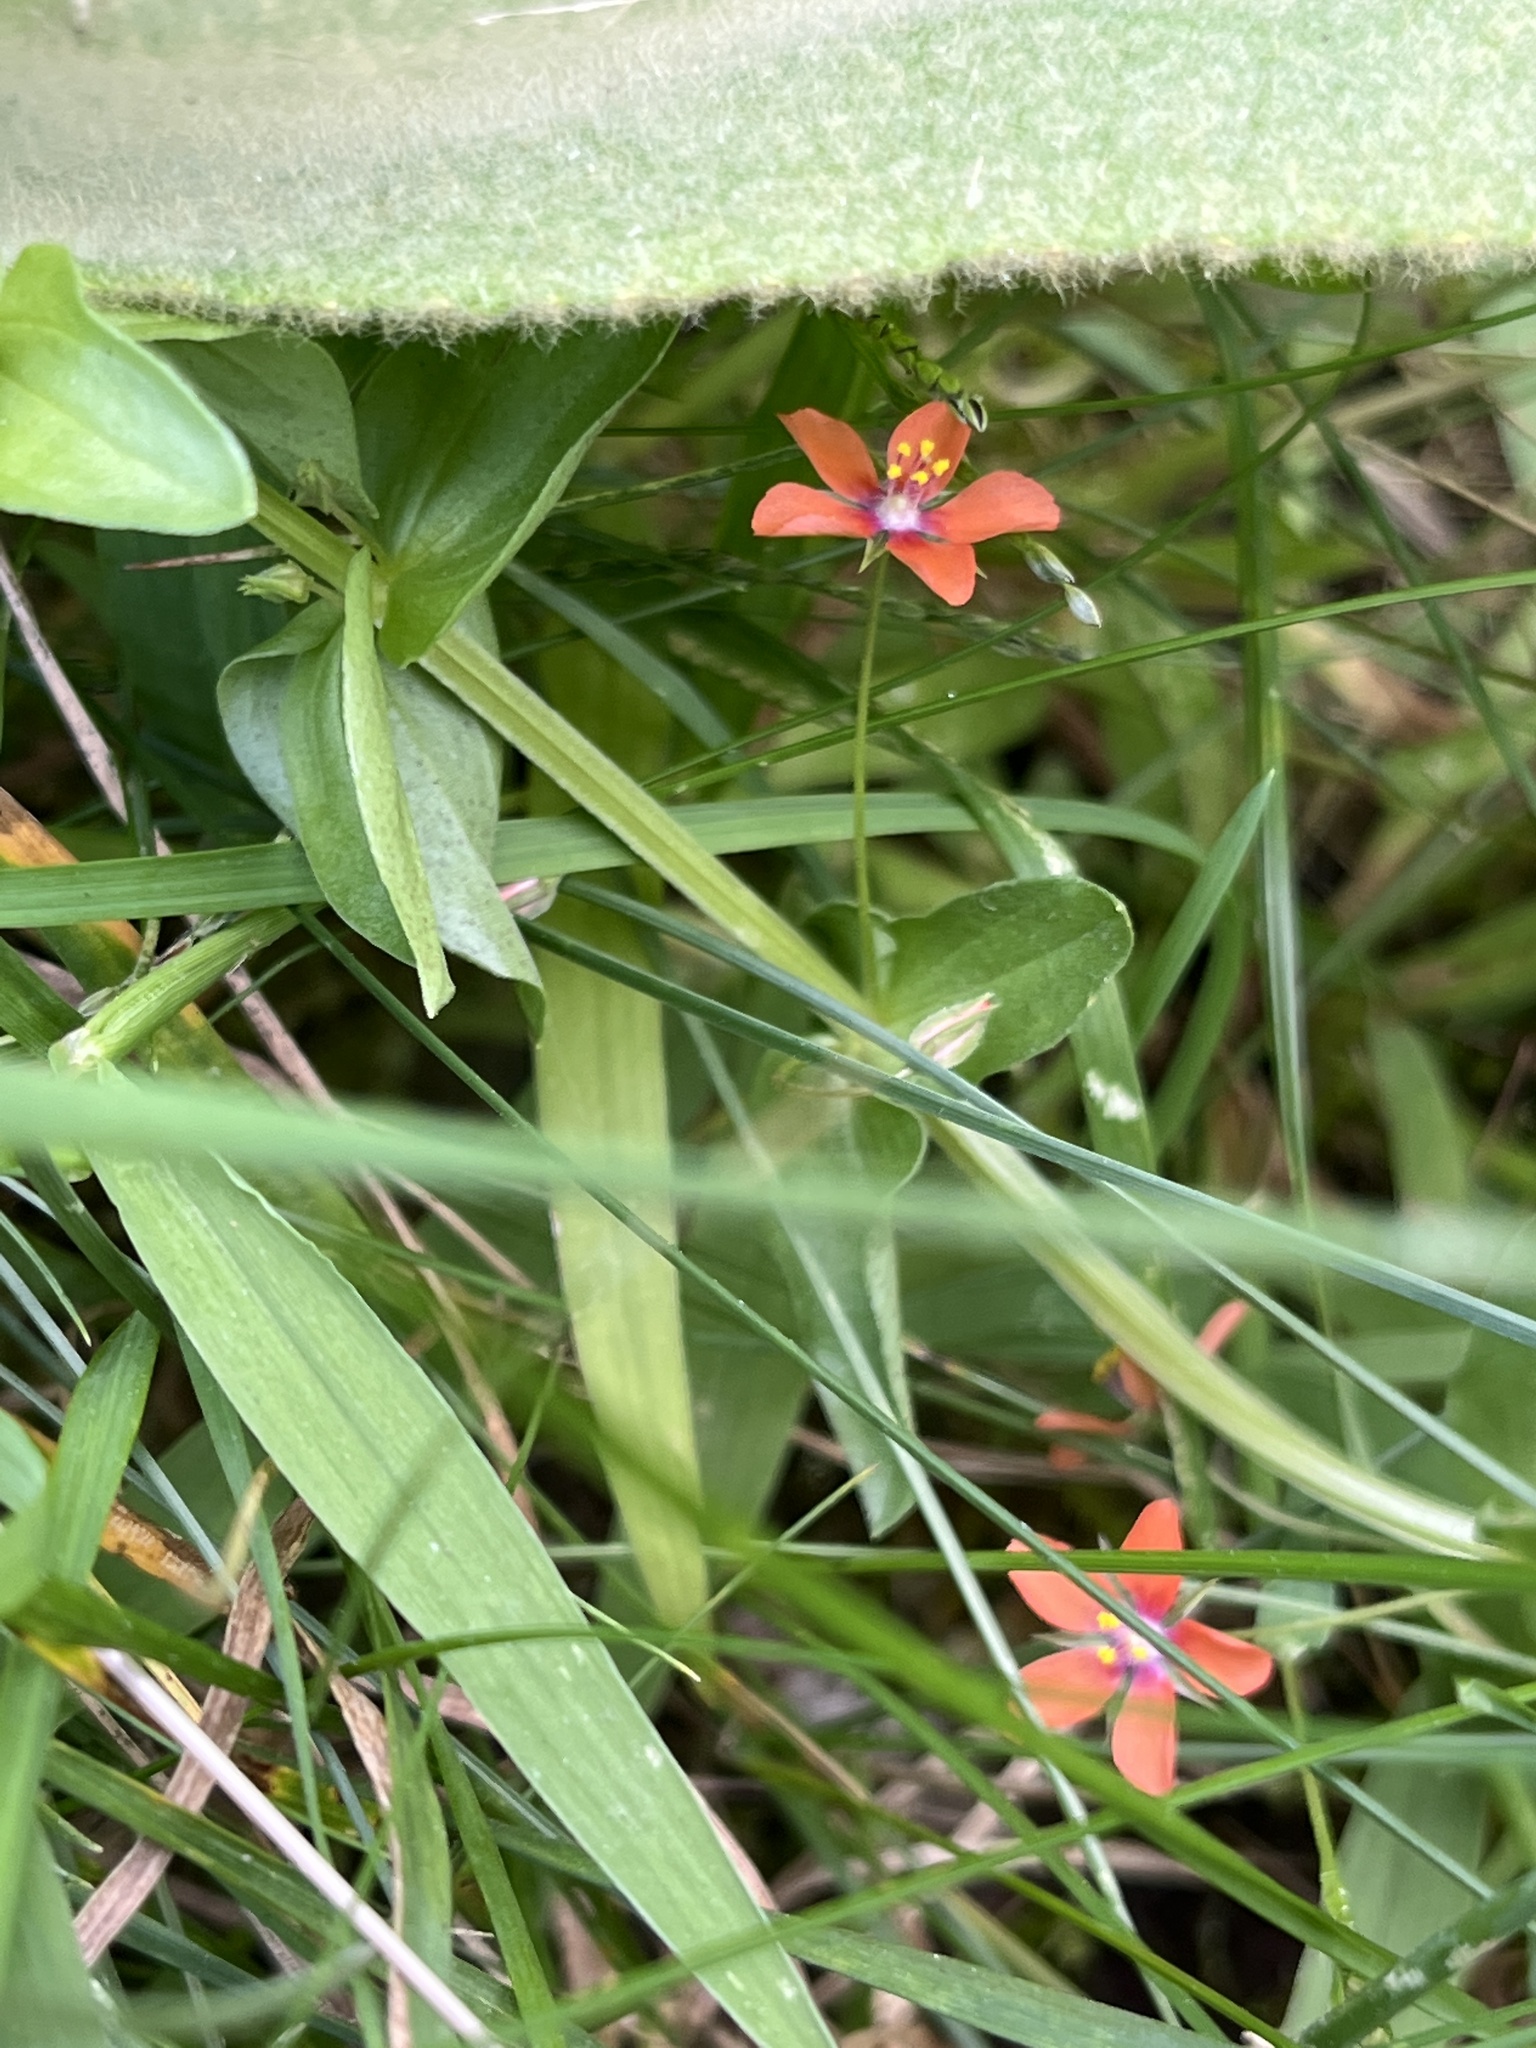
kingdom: Plantae
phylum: Tracheophyta
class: Magnoliopsida
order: Ericales
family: Primulaceae
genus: Lysimachia
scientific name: Lysimachia arvensis
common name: Scarlet pimpernel
